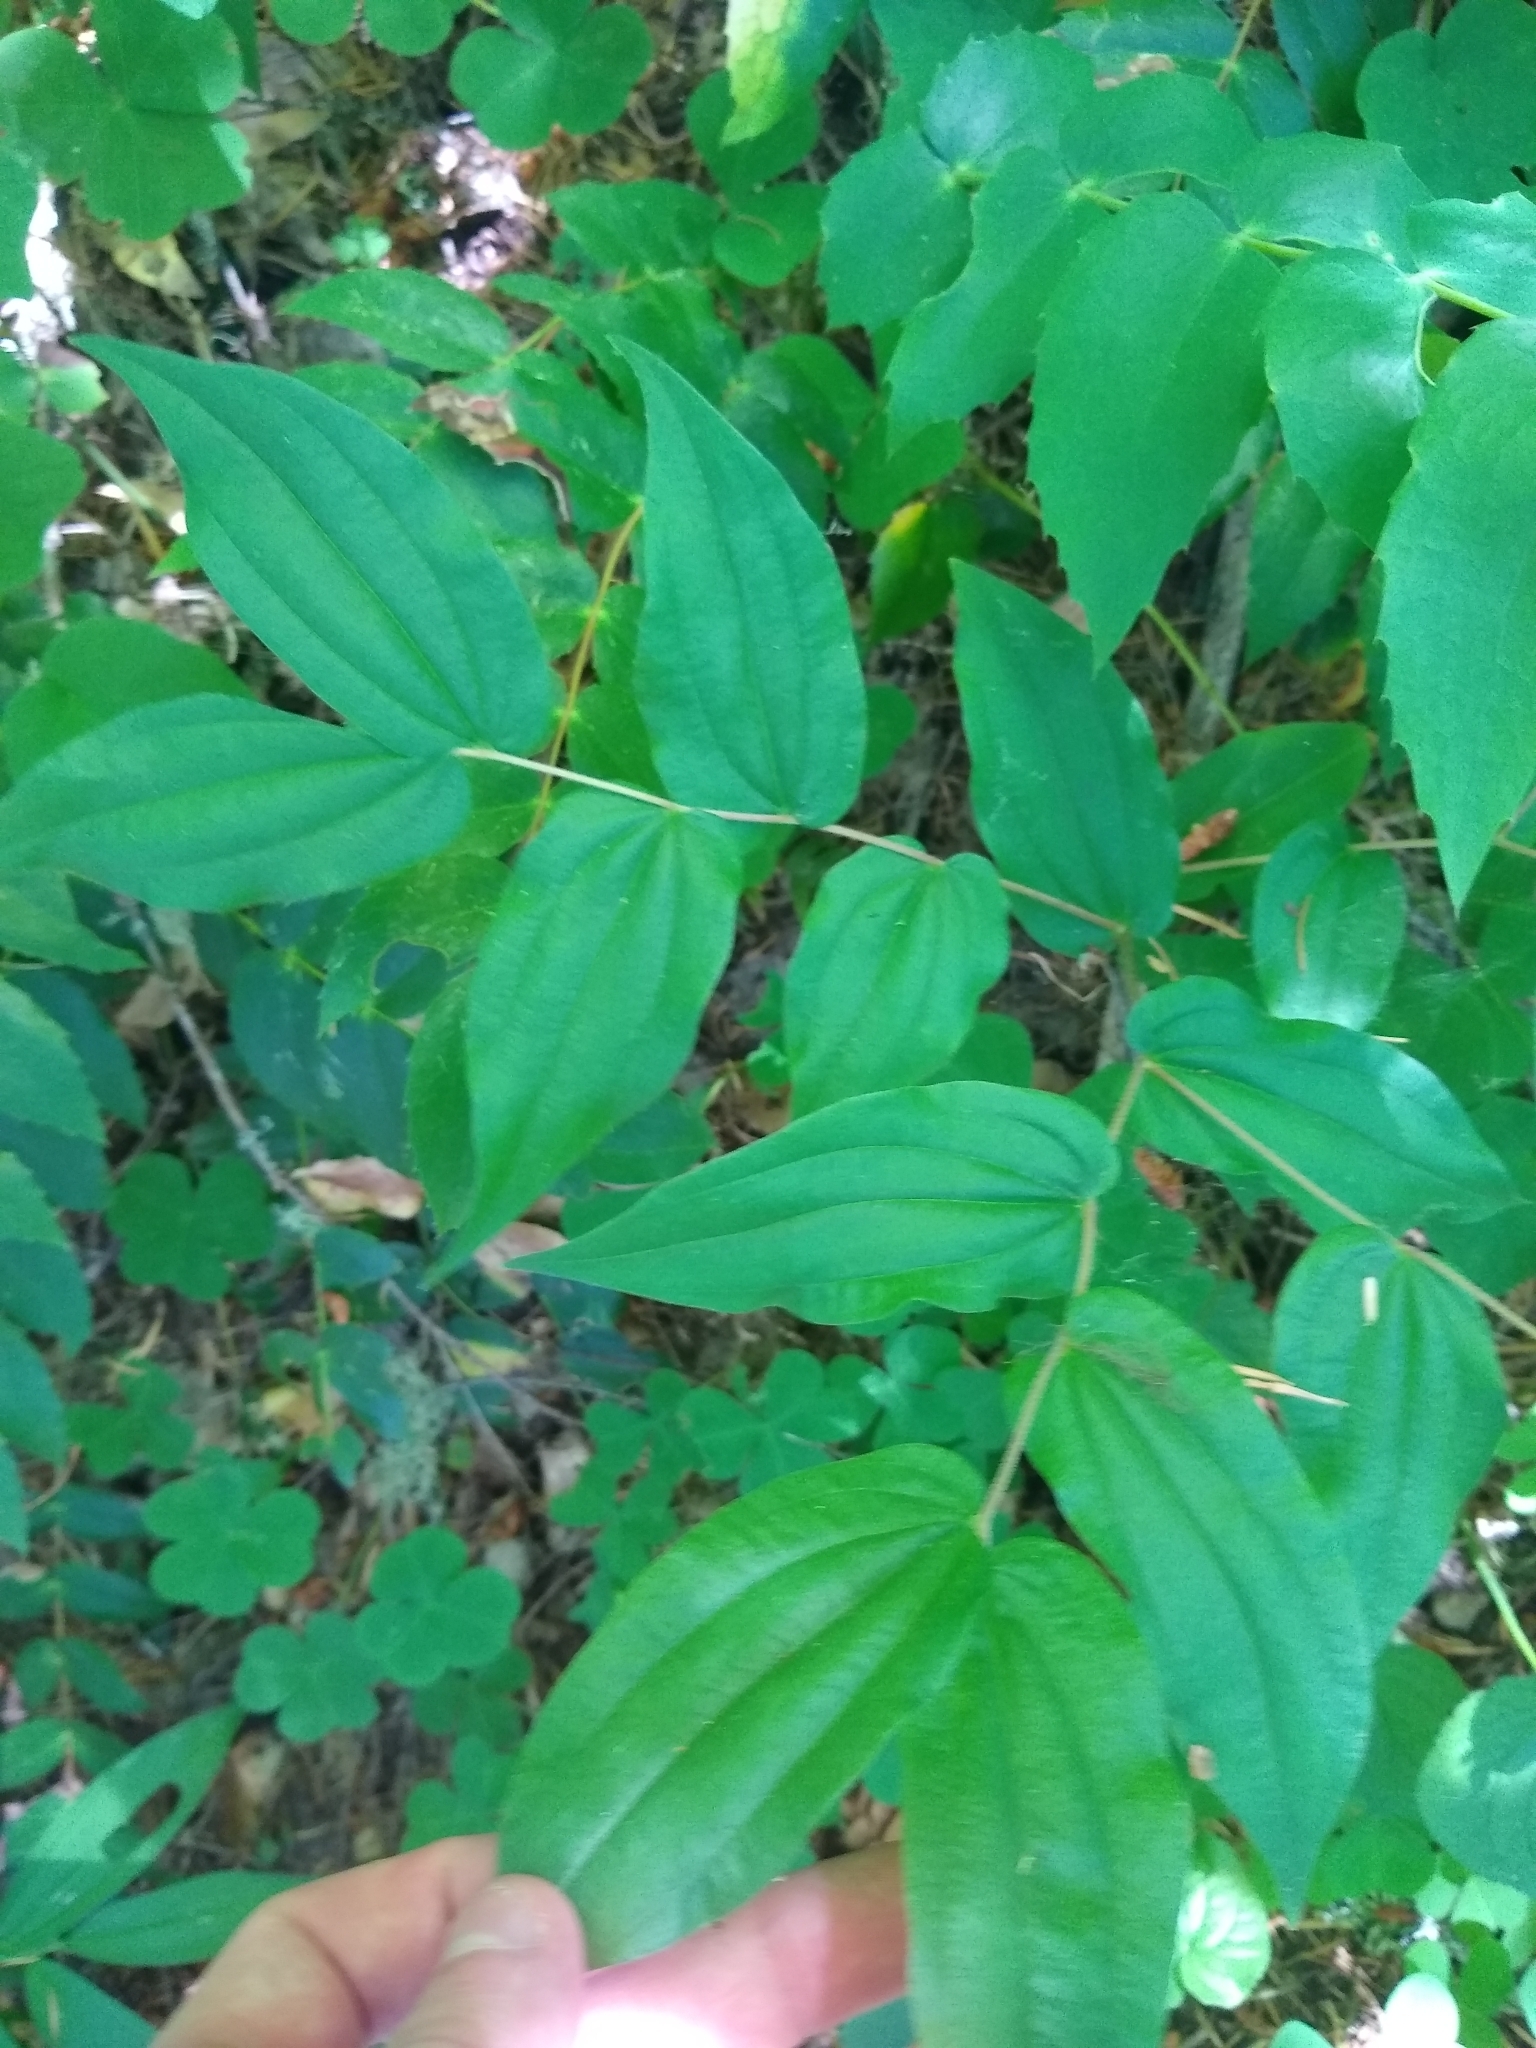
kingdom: Plantae
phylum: Tracheophyta
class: Liliopsida
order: Liliales
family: Liliaceae
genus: Prosartes
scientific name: Prosartes hookeri
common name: Fairy-bells
